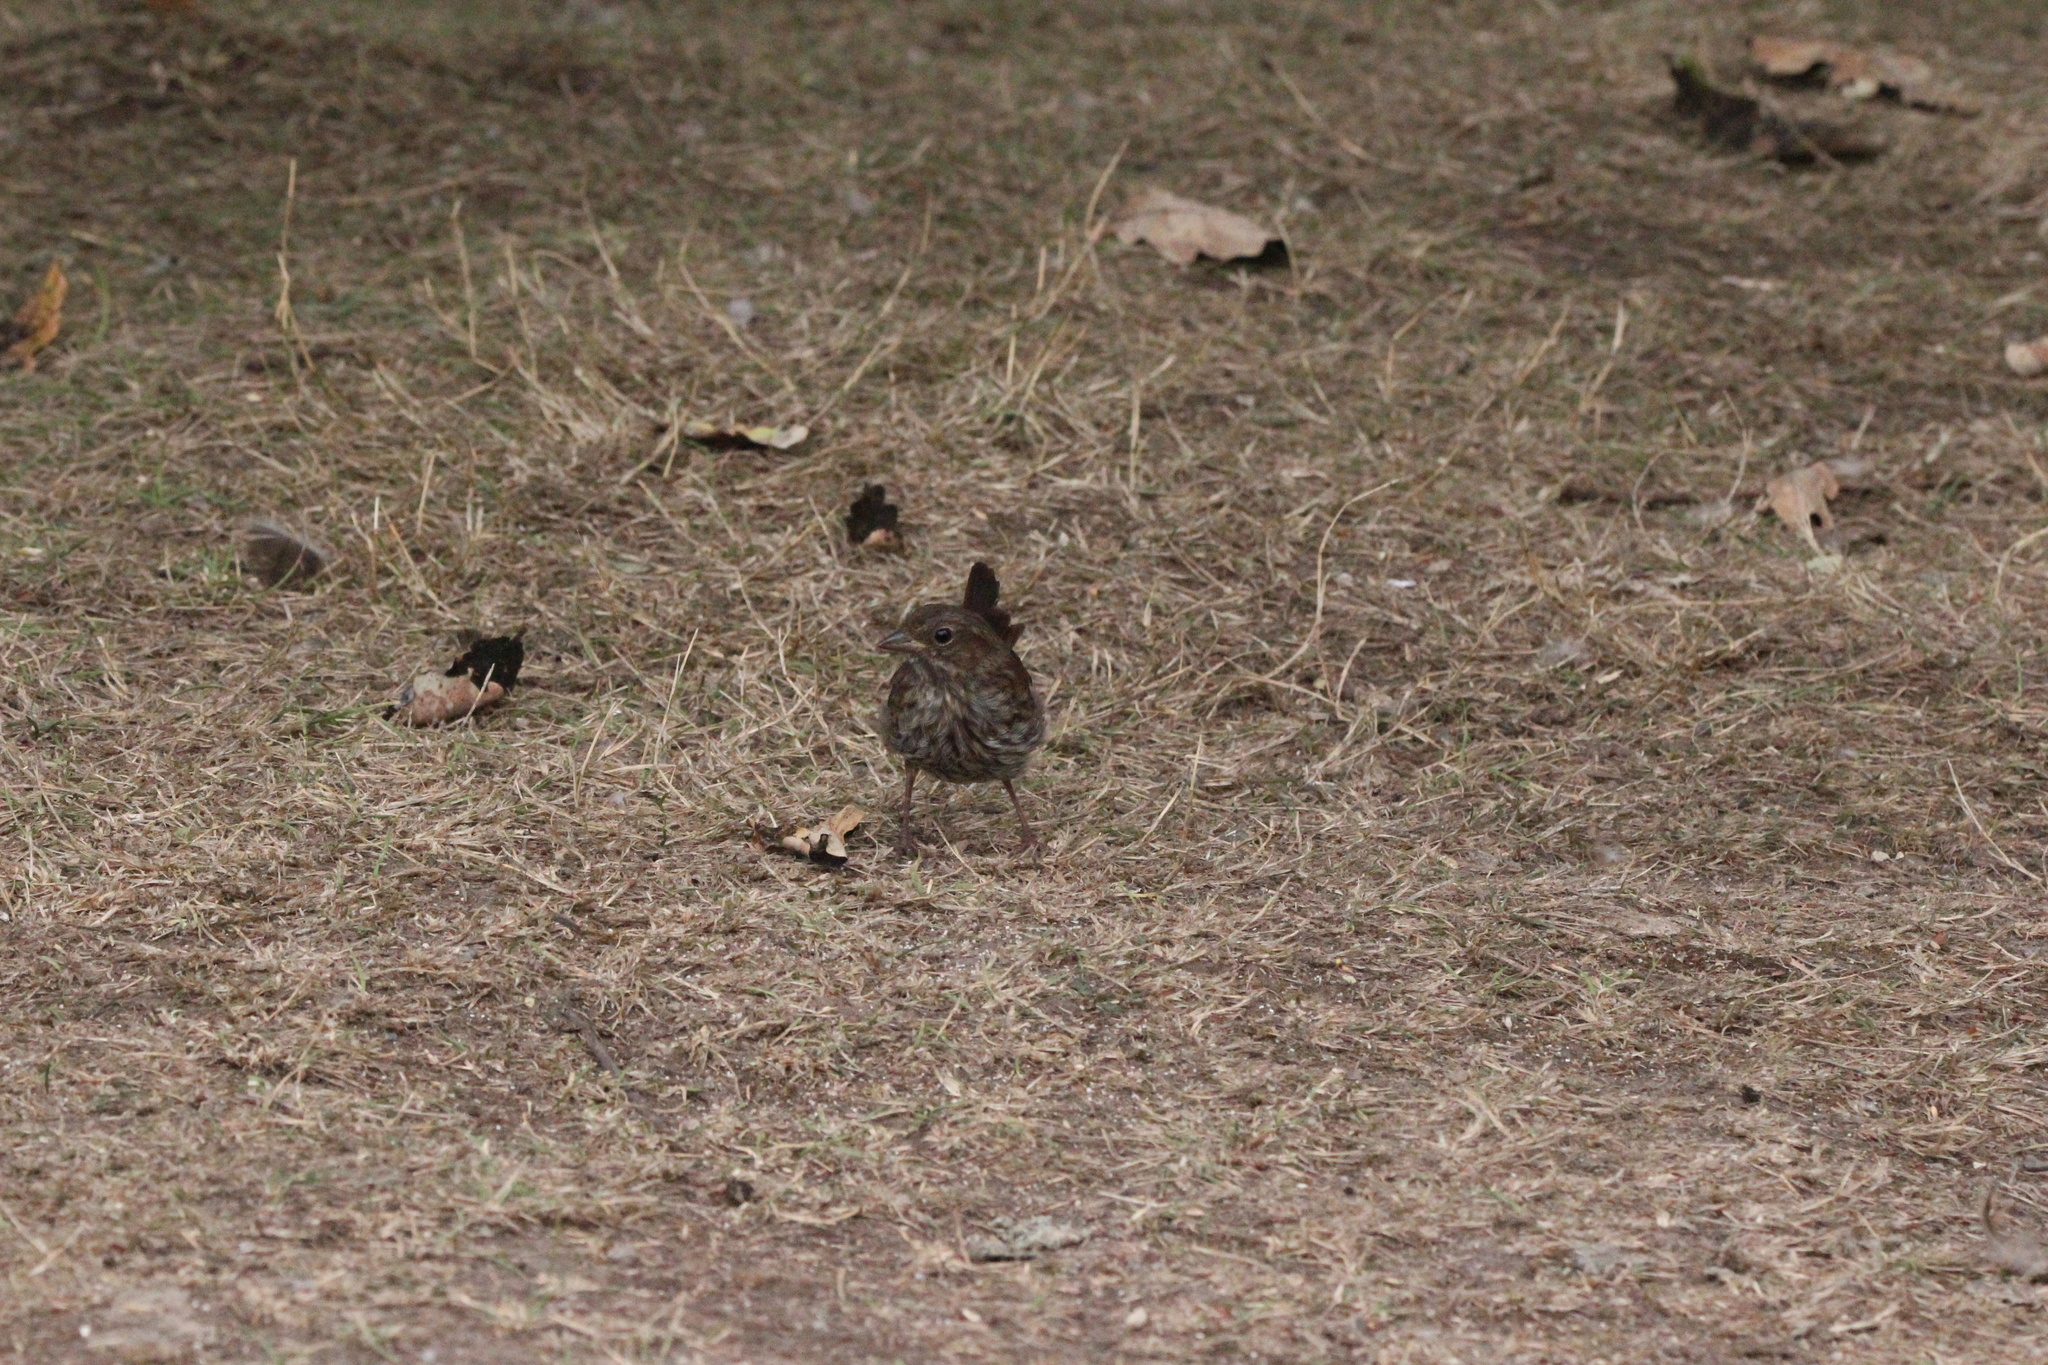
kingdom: Animalia
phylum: Chordata
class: Aves
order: Passeriformes
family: Passerellidae
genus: Melospiza
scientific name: Melospiza melodia
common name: Song sparrow
